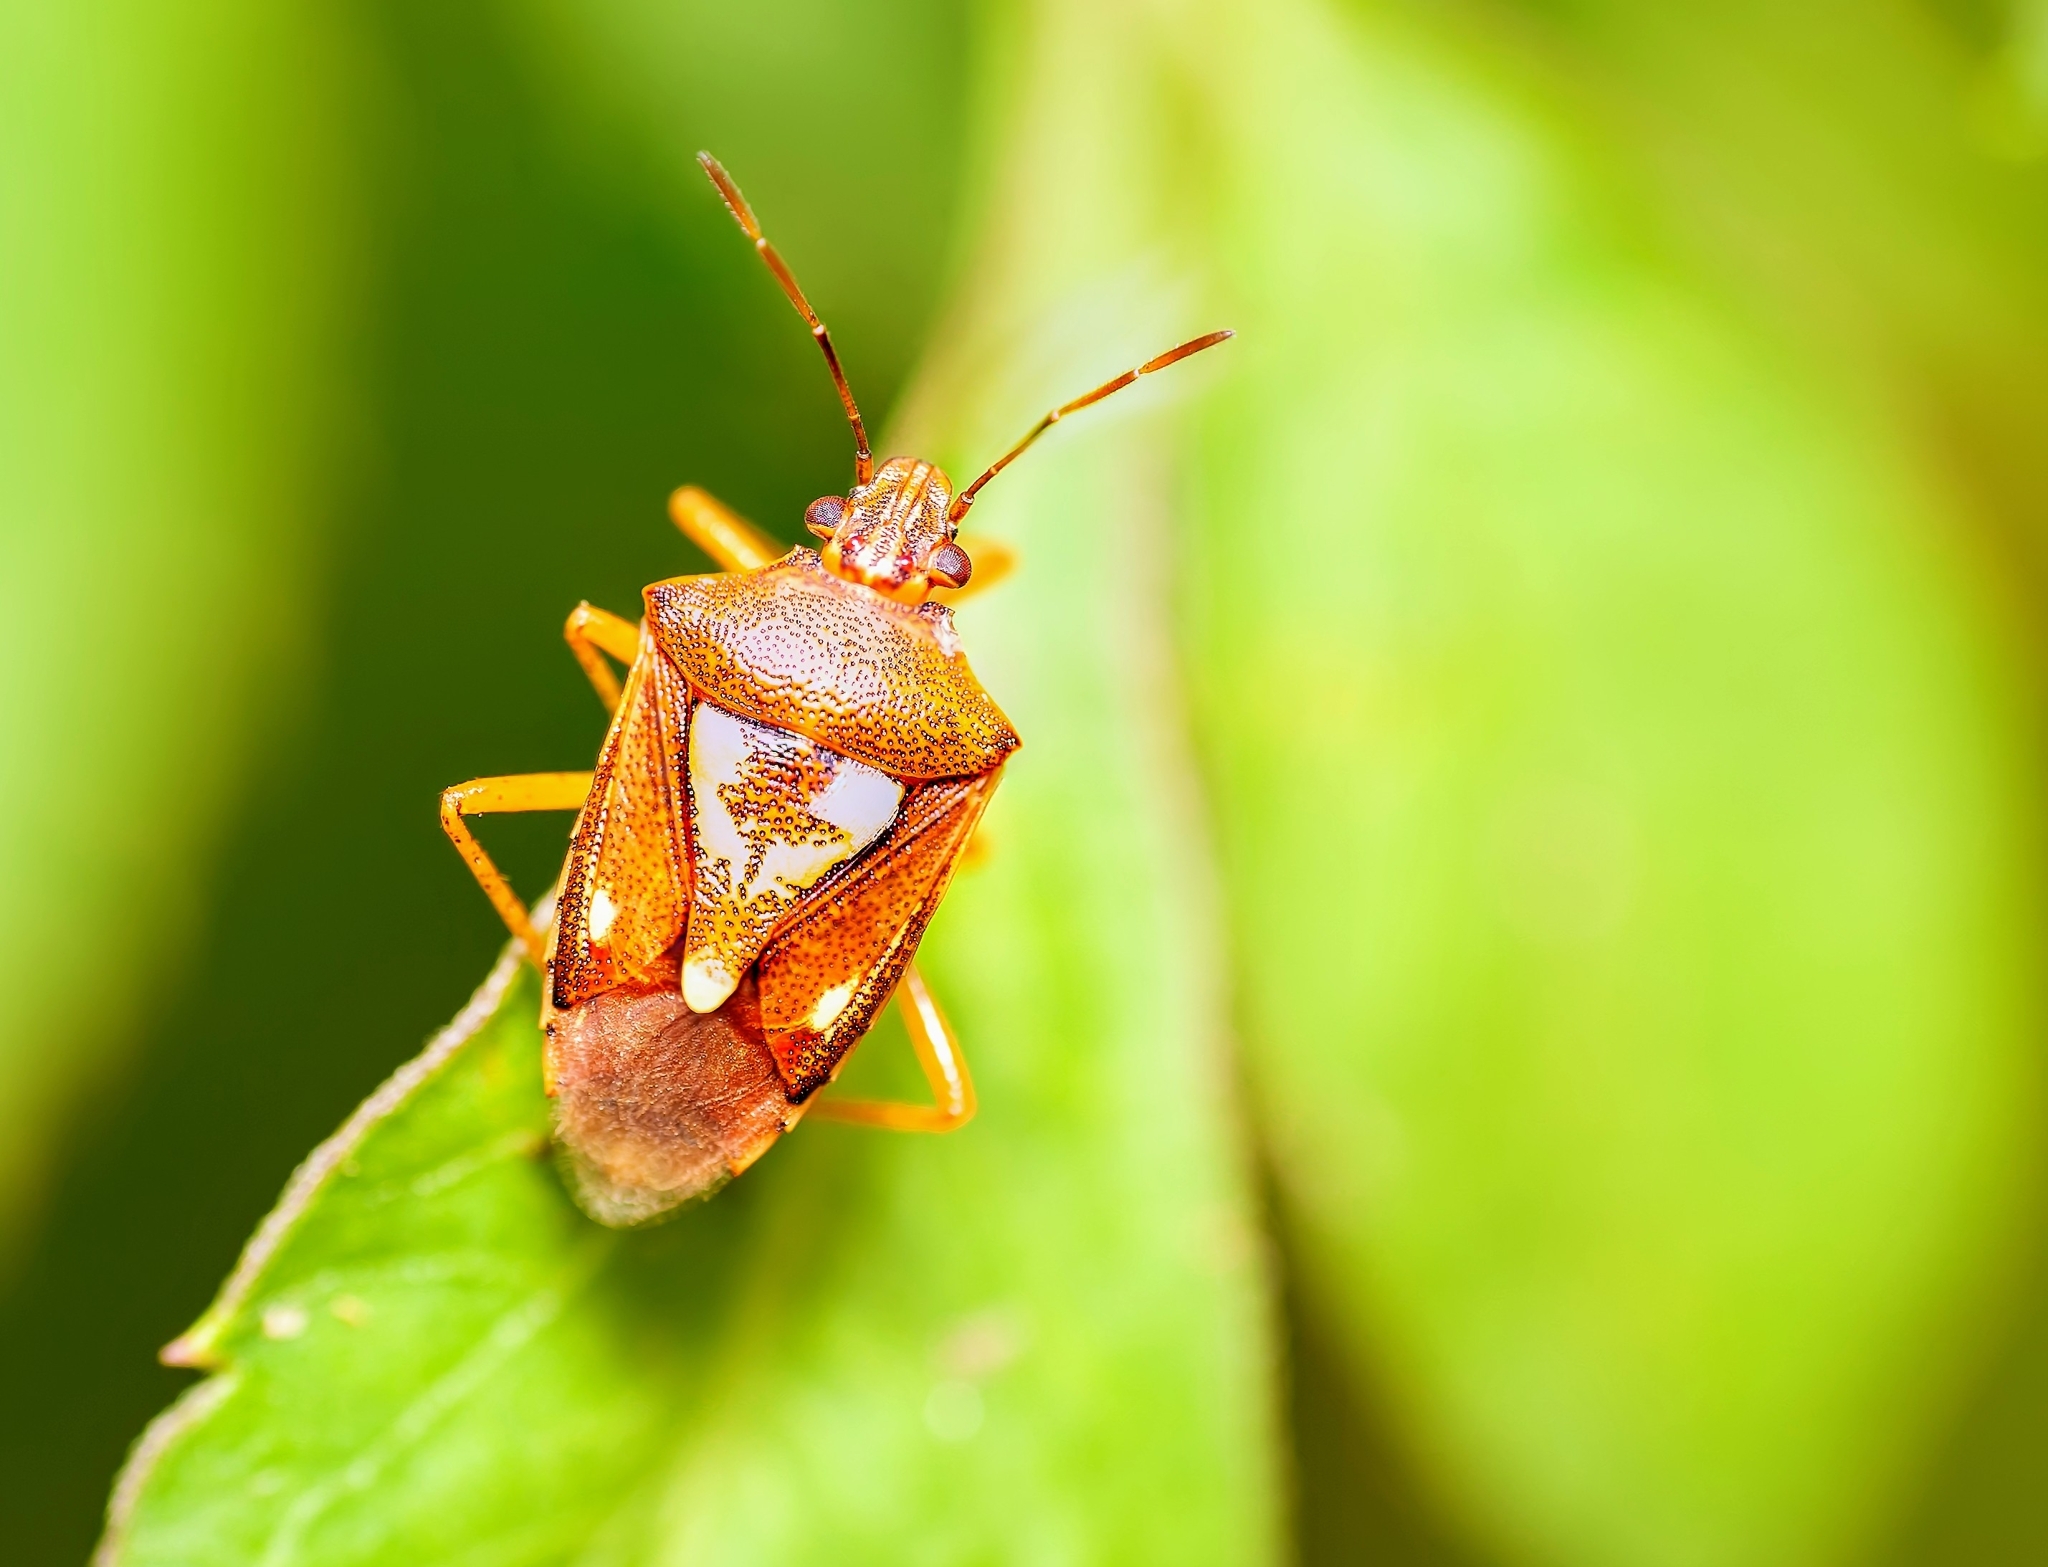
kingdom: Animalia
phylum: Arthropoda
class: Insecta
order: Hemiptera
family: Pentatomidae
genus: Oebalus
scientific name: Oebalus insularis
